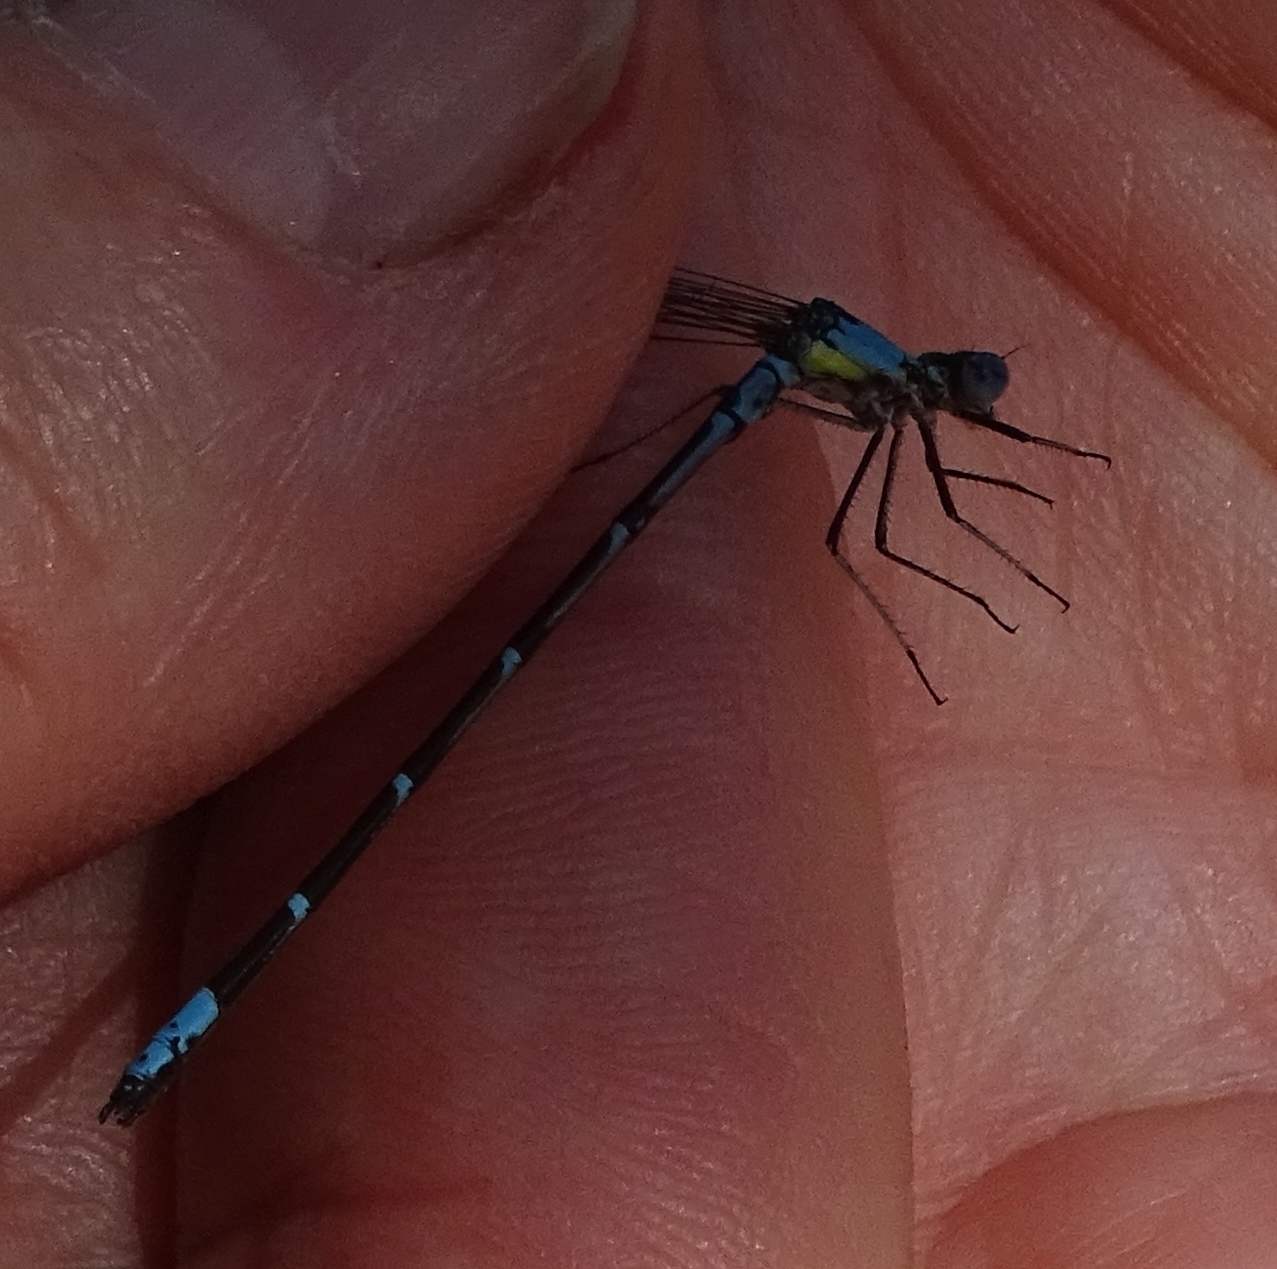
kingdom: Animalia
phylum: Arthropoda
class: Insecta
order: Odonata
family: Coenagrionidae
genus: Chromagrion
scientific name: Chromagrion conditum
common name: Aurora damsel
